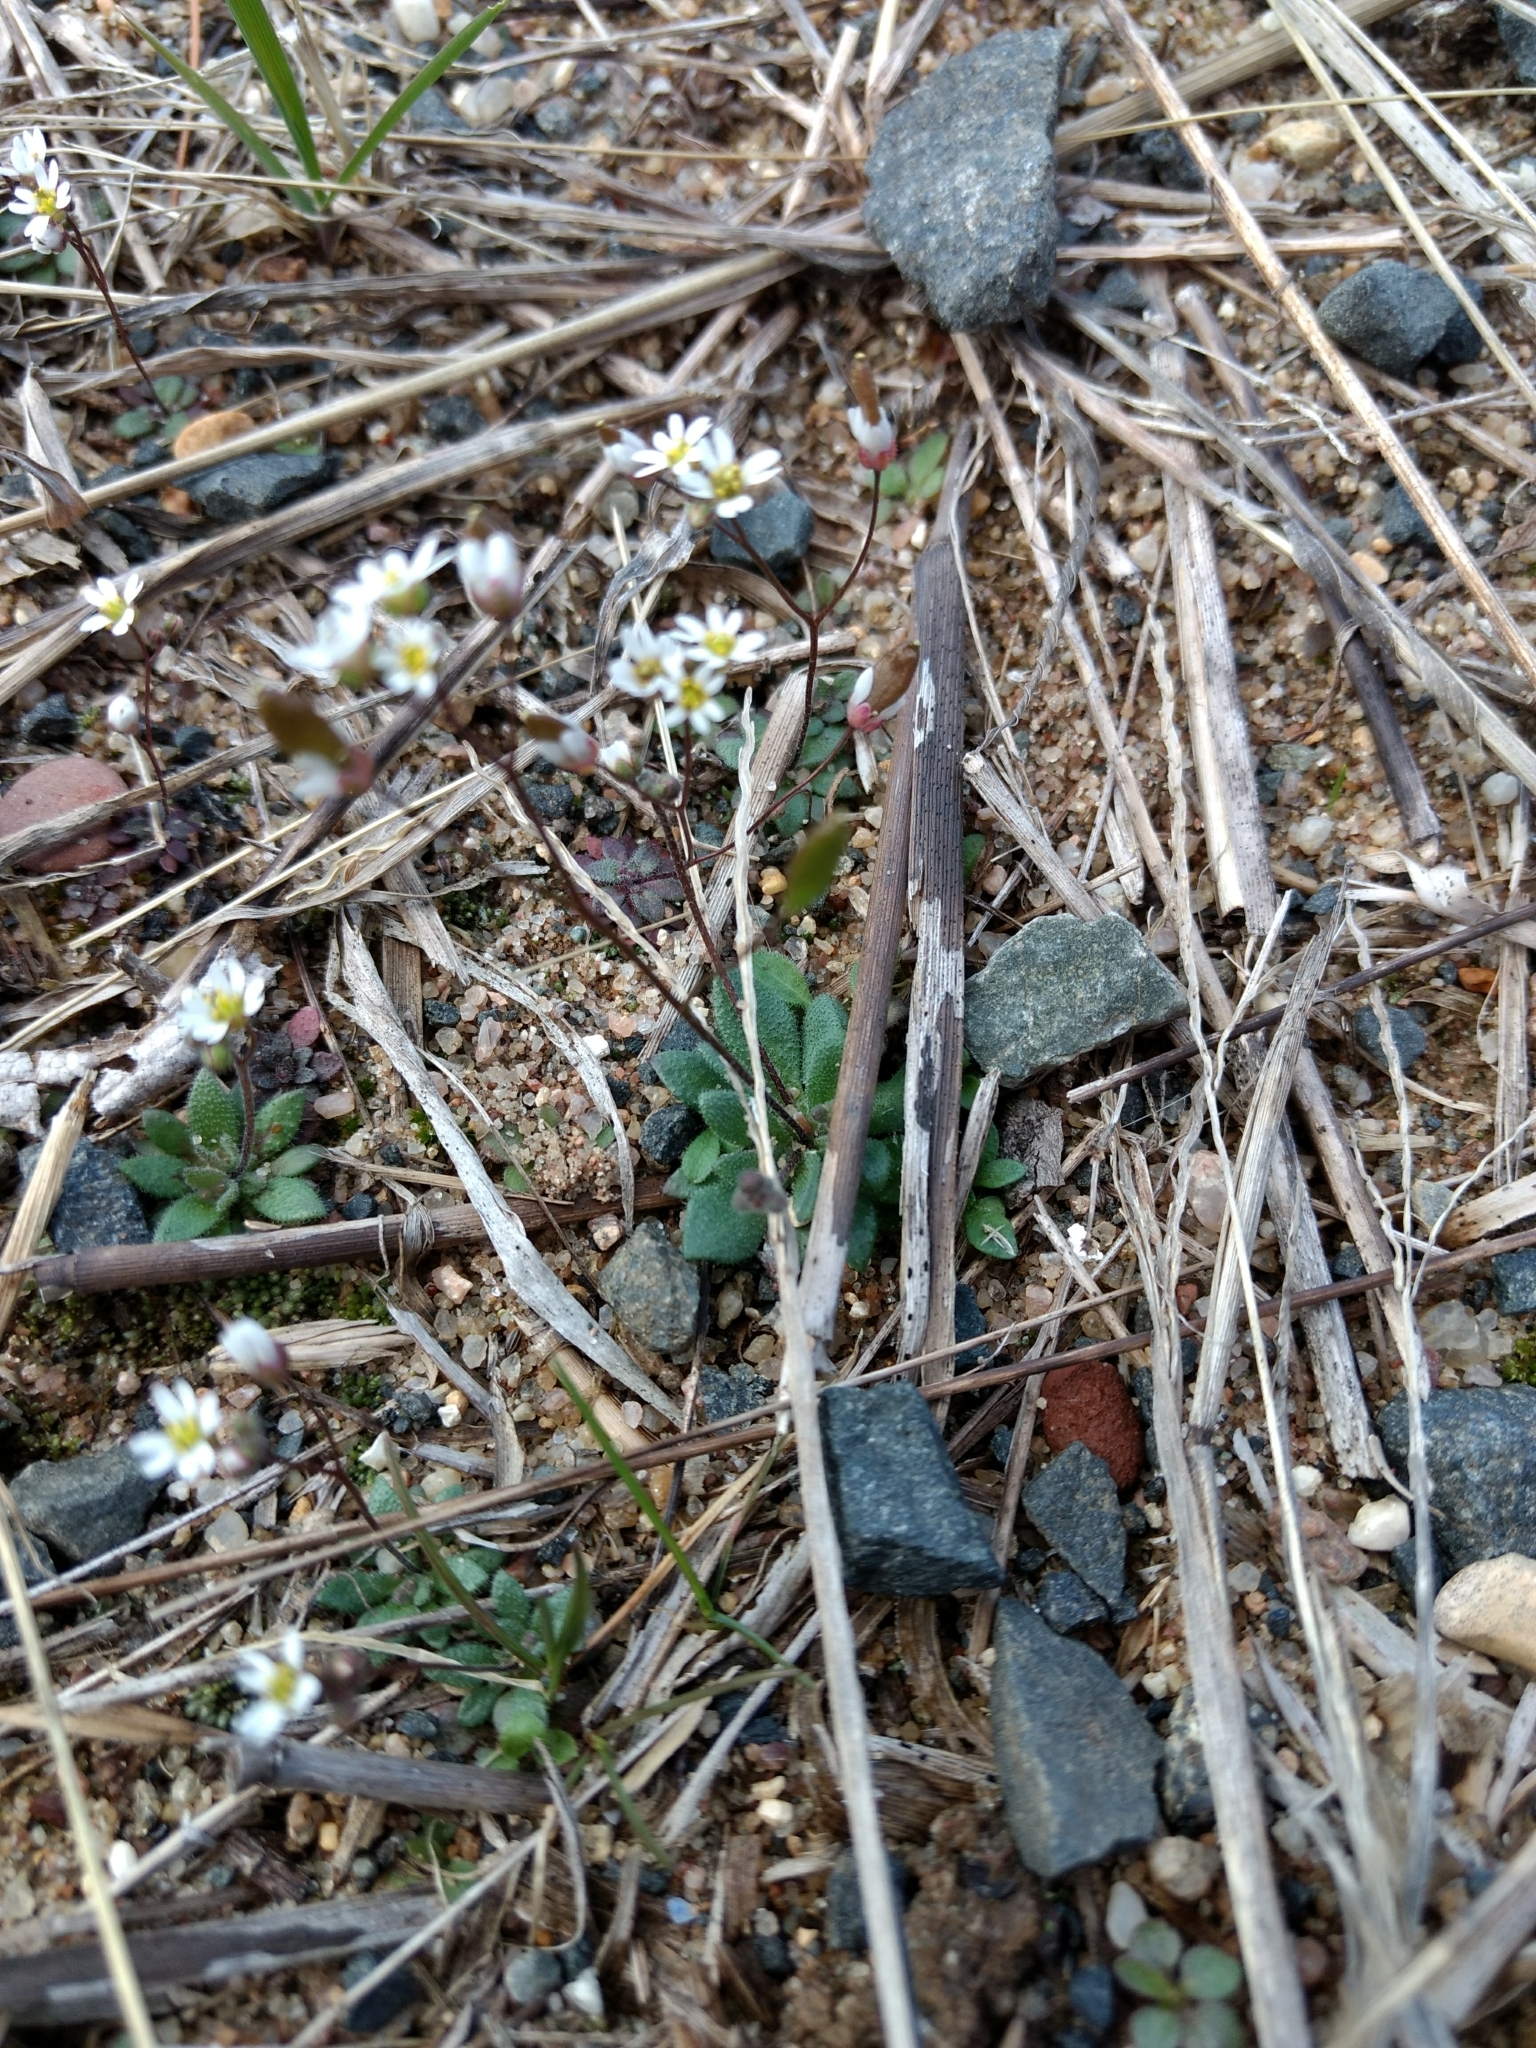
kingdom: Plantae
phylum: Tracheophyta
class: Magnoliopsida
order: Brassicales
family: Brassicaceae
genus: Draba
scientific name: Draba verna
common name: Spring draba
